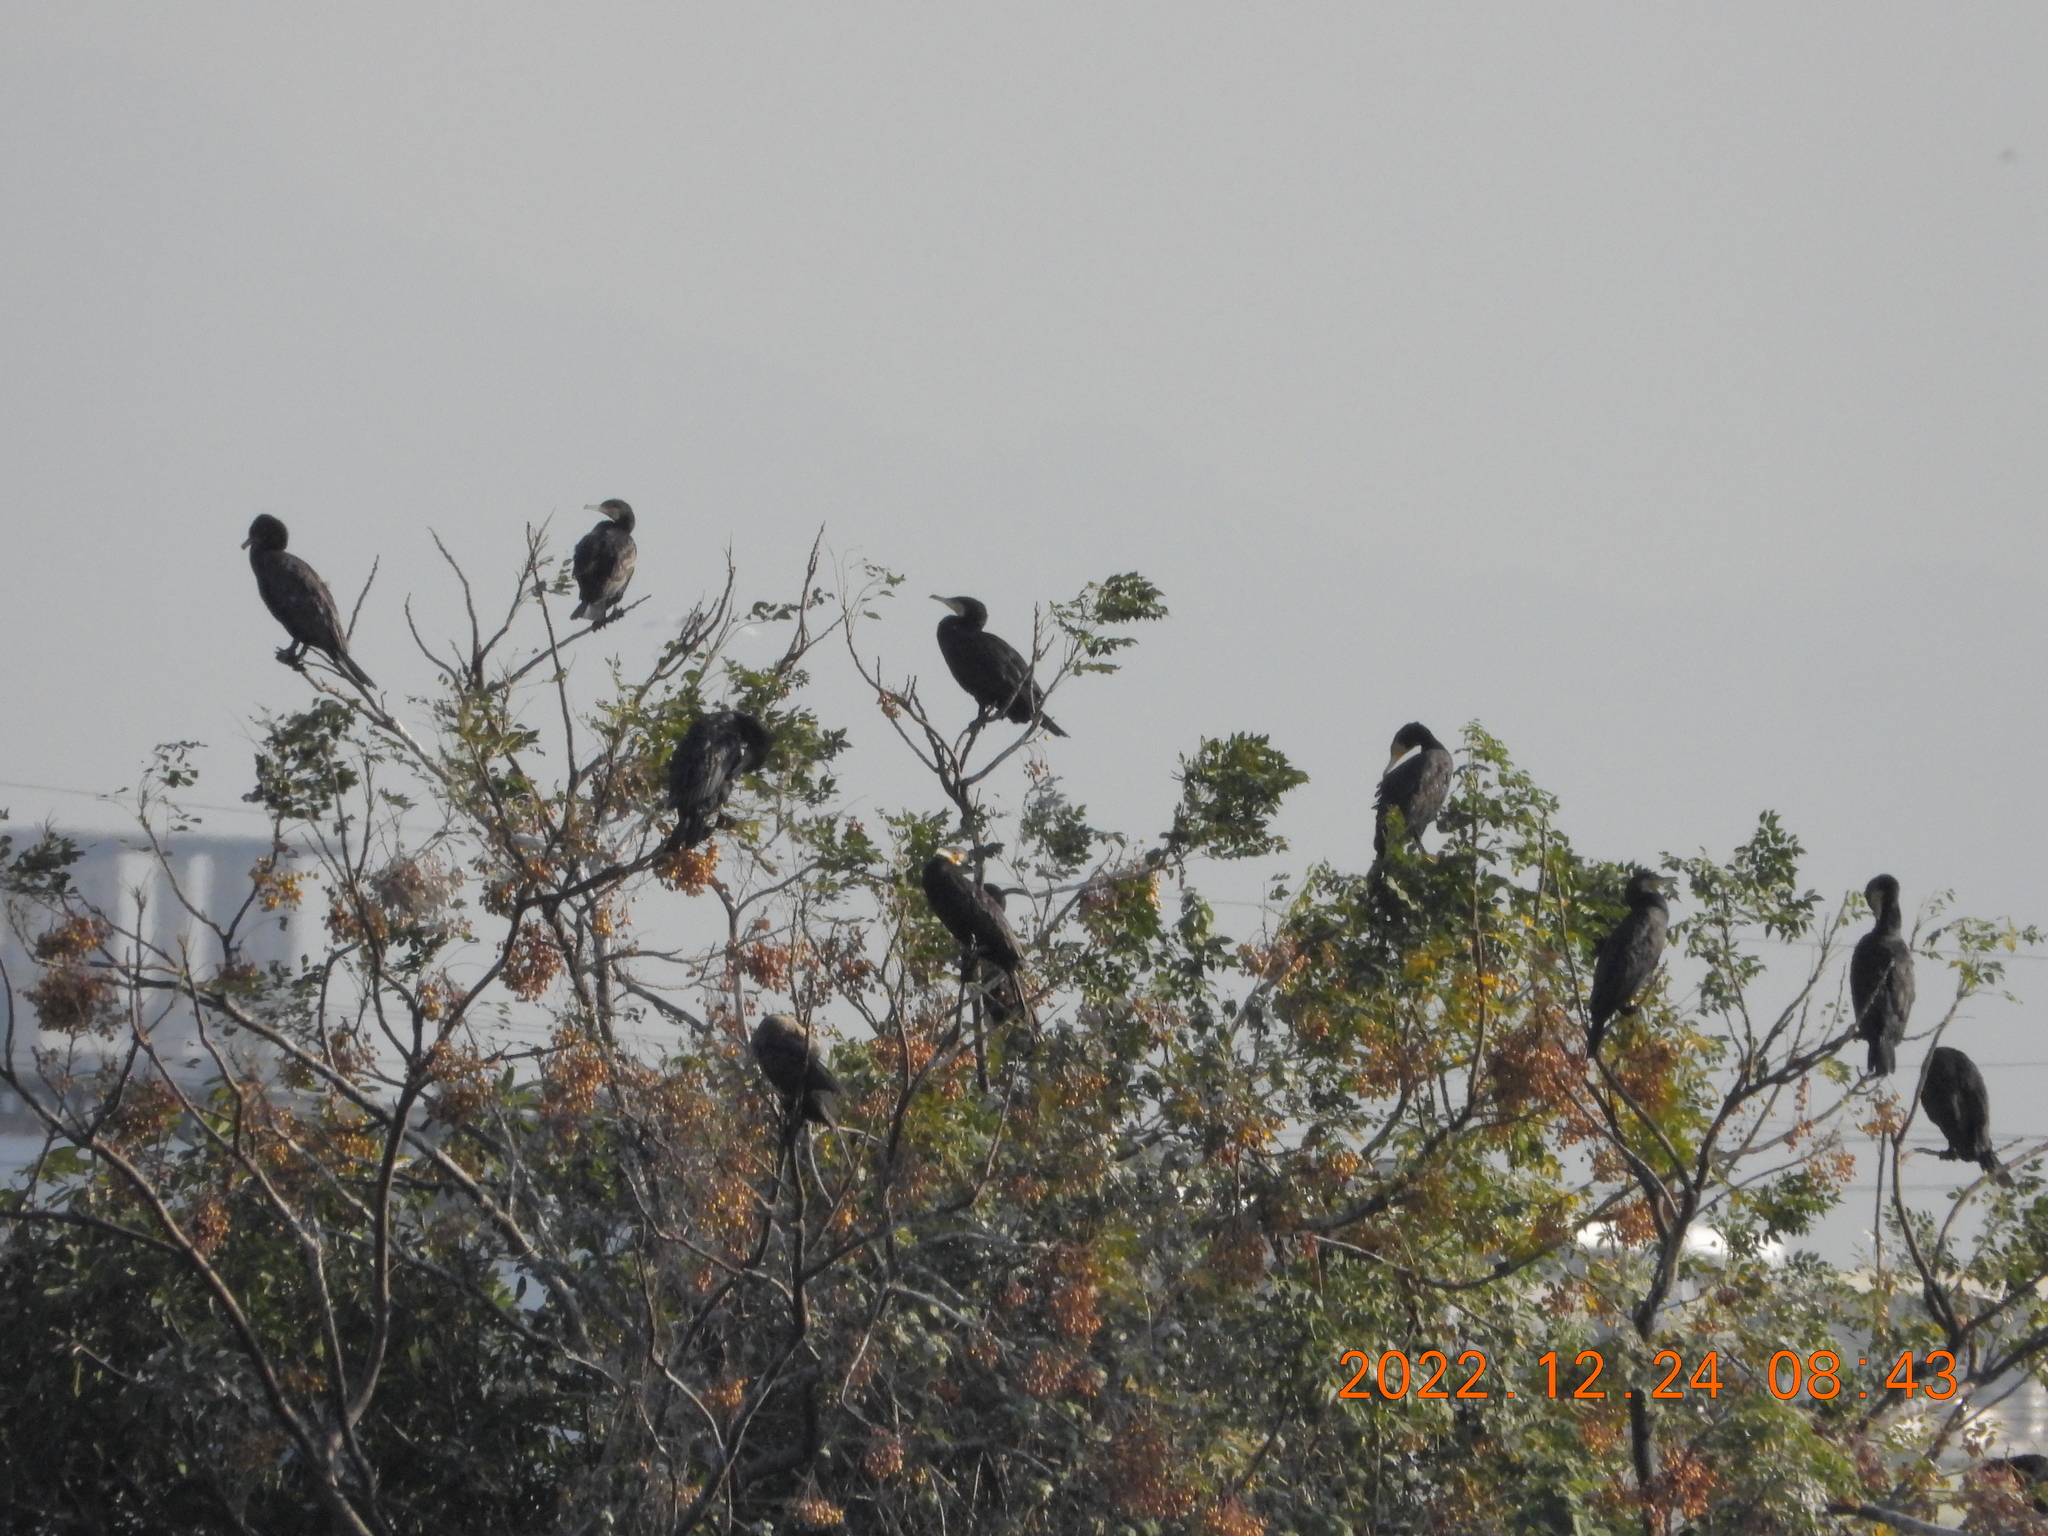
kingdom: Animalia
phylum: Chordata
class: Aves
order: Suliformes
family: Phalacrocoracidae
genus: Phalacrocorax
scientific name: Phalacrocorax carbo
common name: Great cormorant
